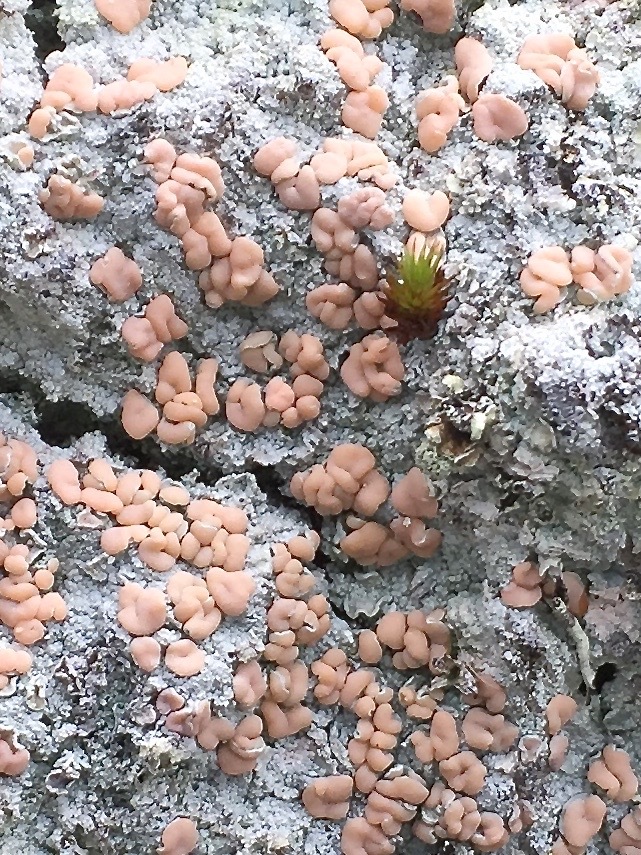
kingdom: Fungi
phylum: Ascomycota
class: Lecanoromycetes
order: Pertusariales
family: Icmadophilaceae
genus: Icmadophila
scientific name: Icmadophila ericetorum
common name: Candy lichen
